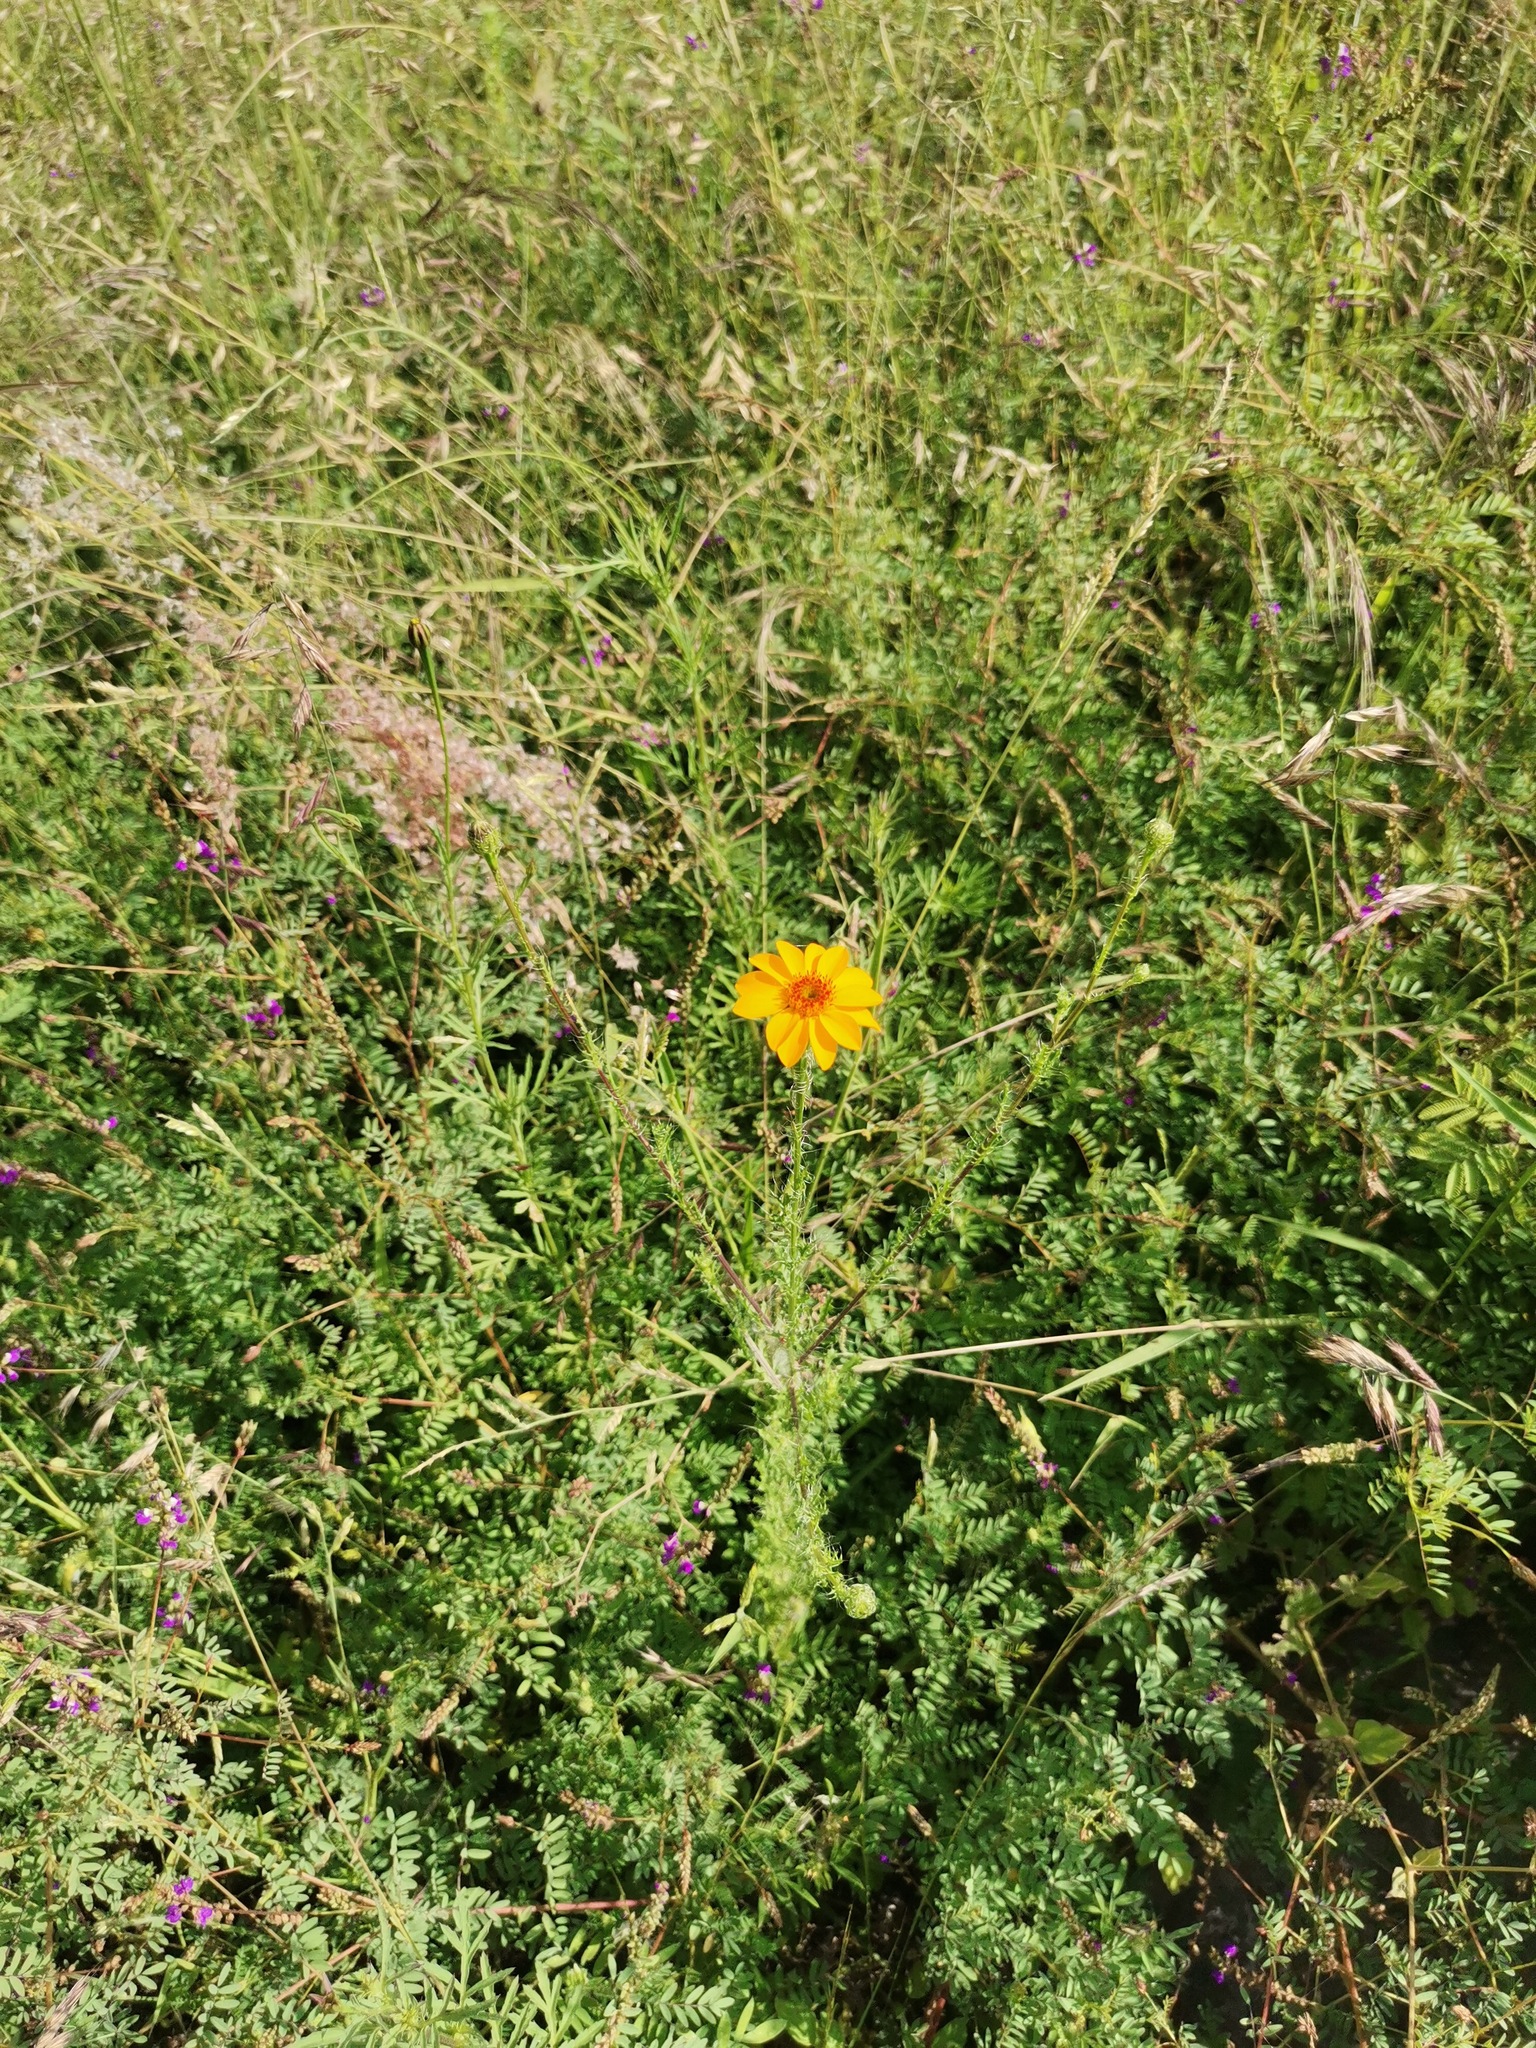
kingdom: Plantae
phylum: Tracheophyta
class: Magnoliopsida
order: Asterales
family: Asteraceae
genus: Adenophyllum
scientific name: Adenophyllum cancellatum
